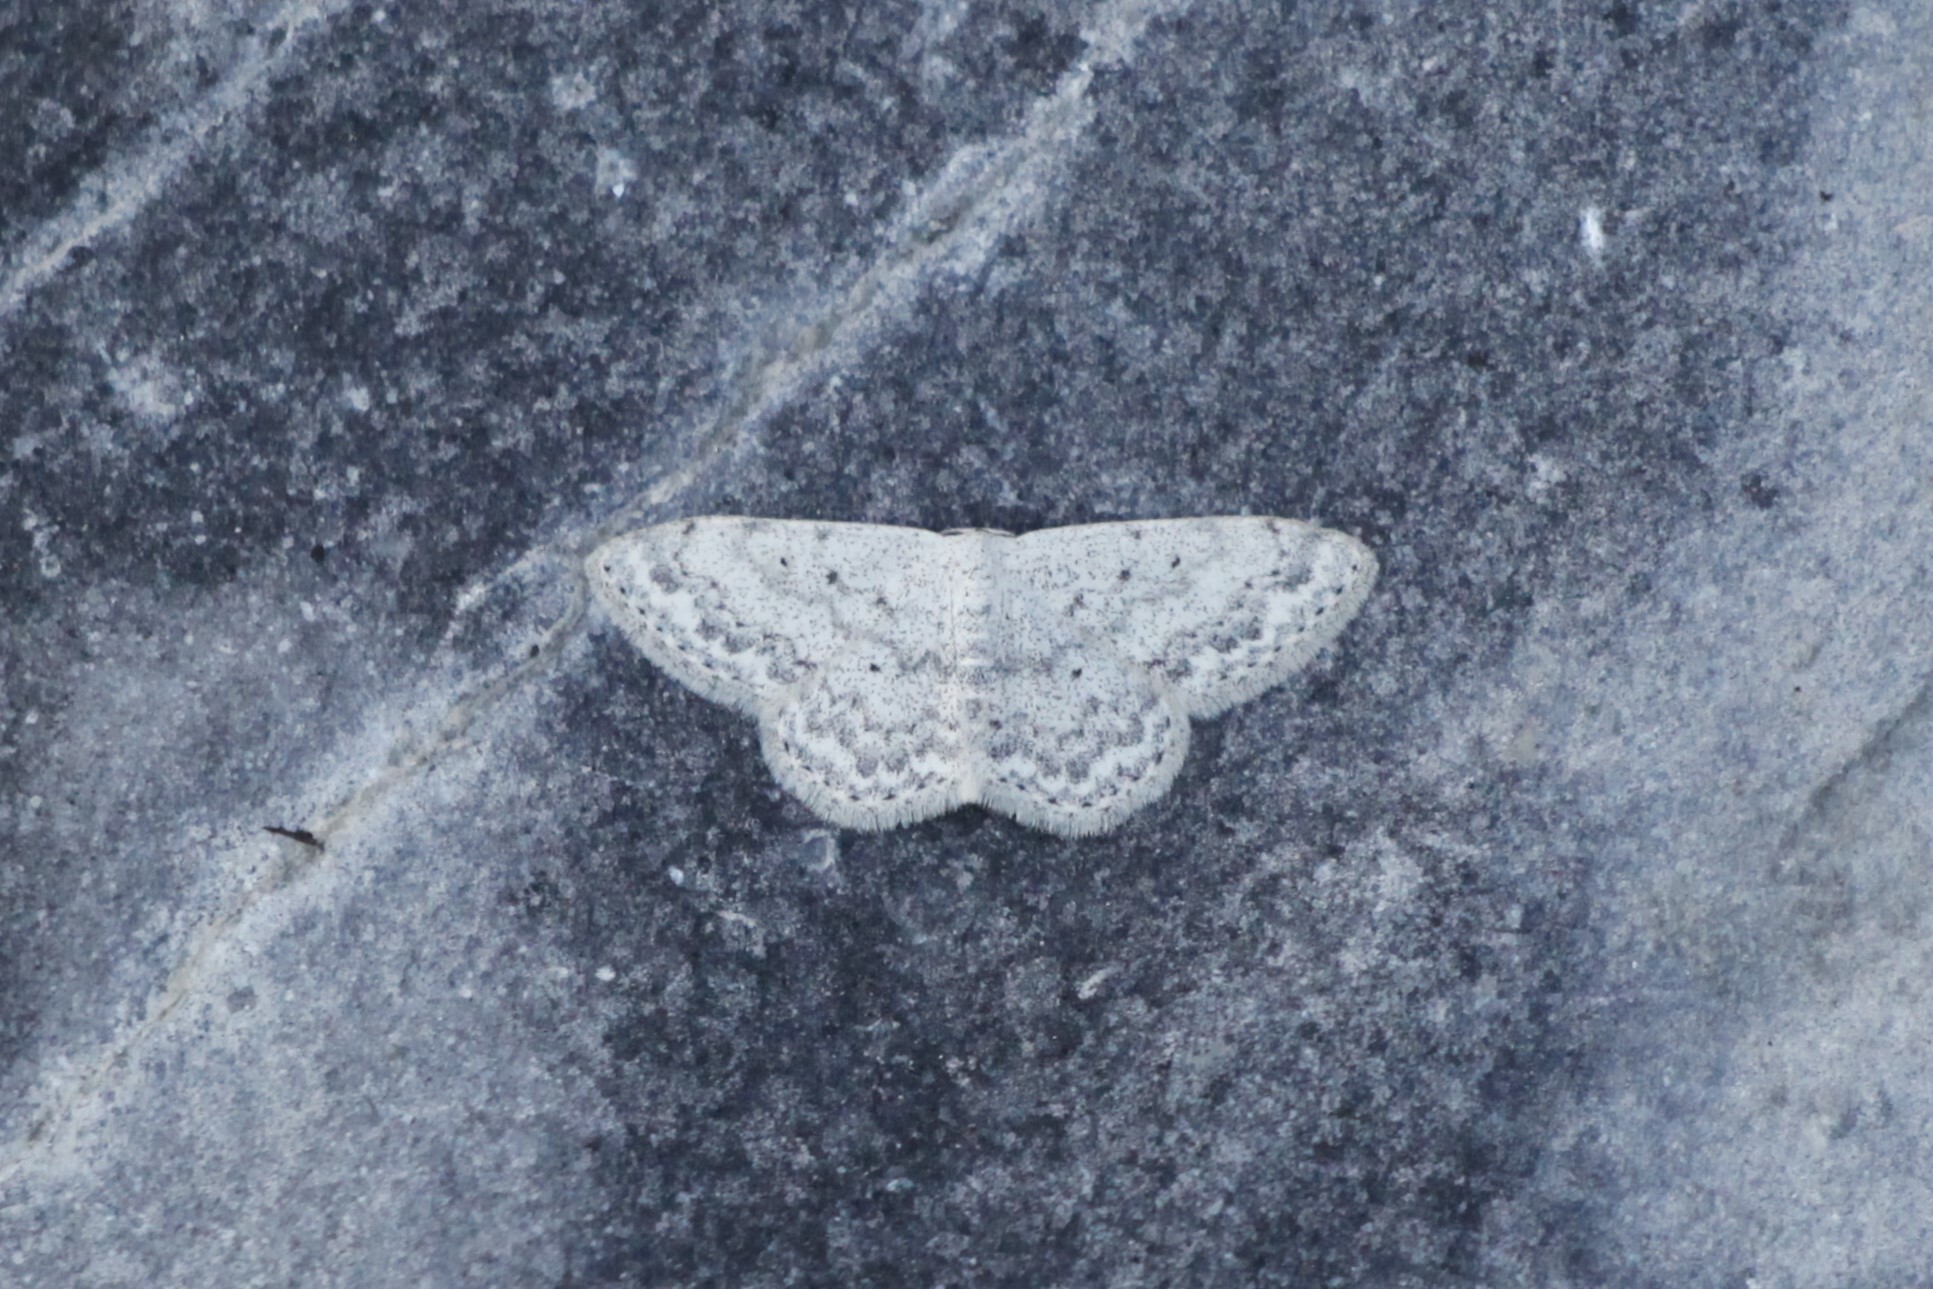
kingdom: Animalia
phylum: Arthropoda
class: Insecta
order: Lepidoptera
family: Geometridae
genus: Scopula
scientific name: Scopula marginepunctata
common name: Mullein wave
